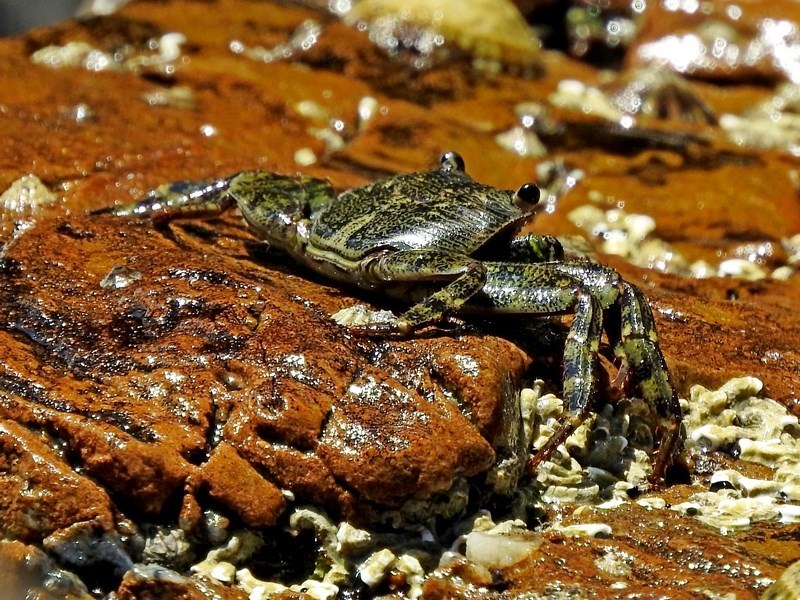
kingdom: Animalia
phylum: Arthropoda
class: Malacostraca
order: Decapoda
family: Grapsidae
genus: Leptograpsus
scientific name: Leptograpsus variegatus
